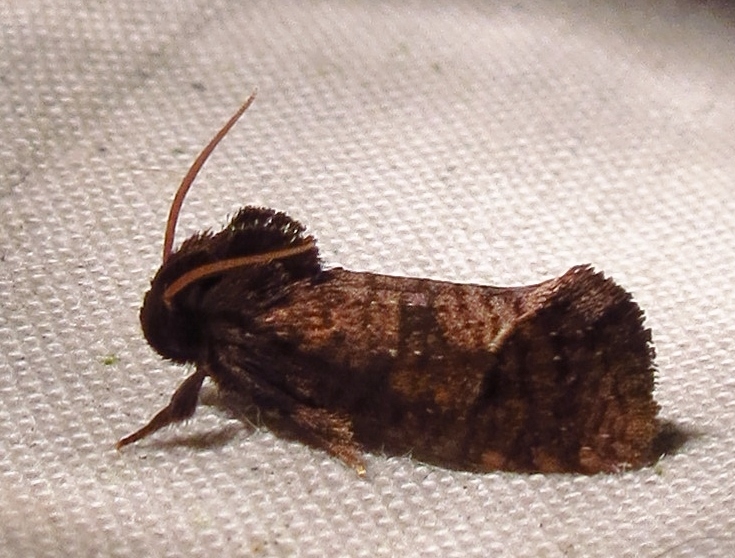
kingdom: Animalia
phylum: Arthropoda
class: Insecta
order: Lepidoptera
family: Tineidae
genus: Acrolophus
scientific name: Acrolophus texanella
